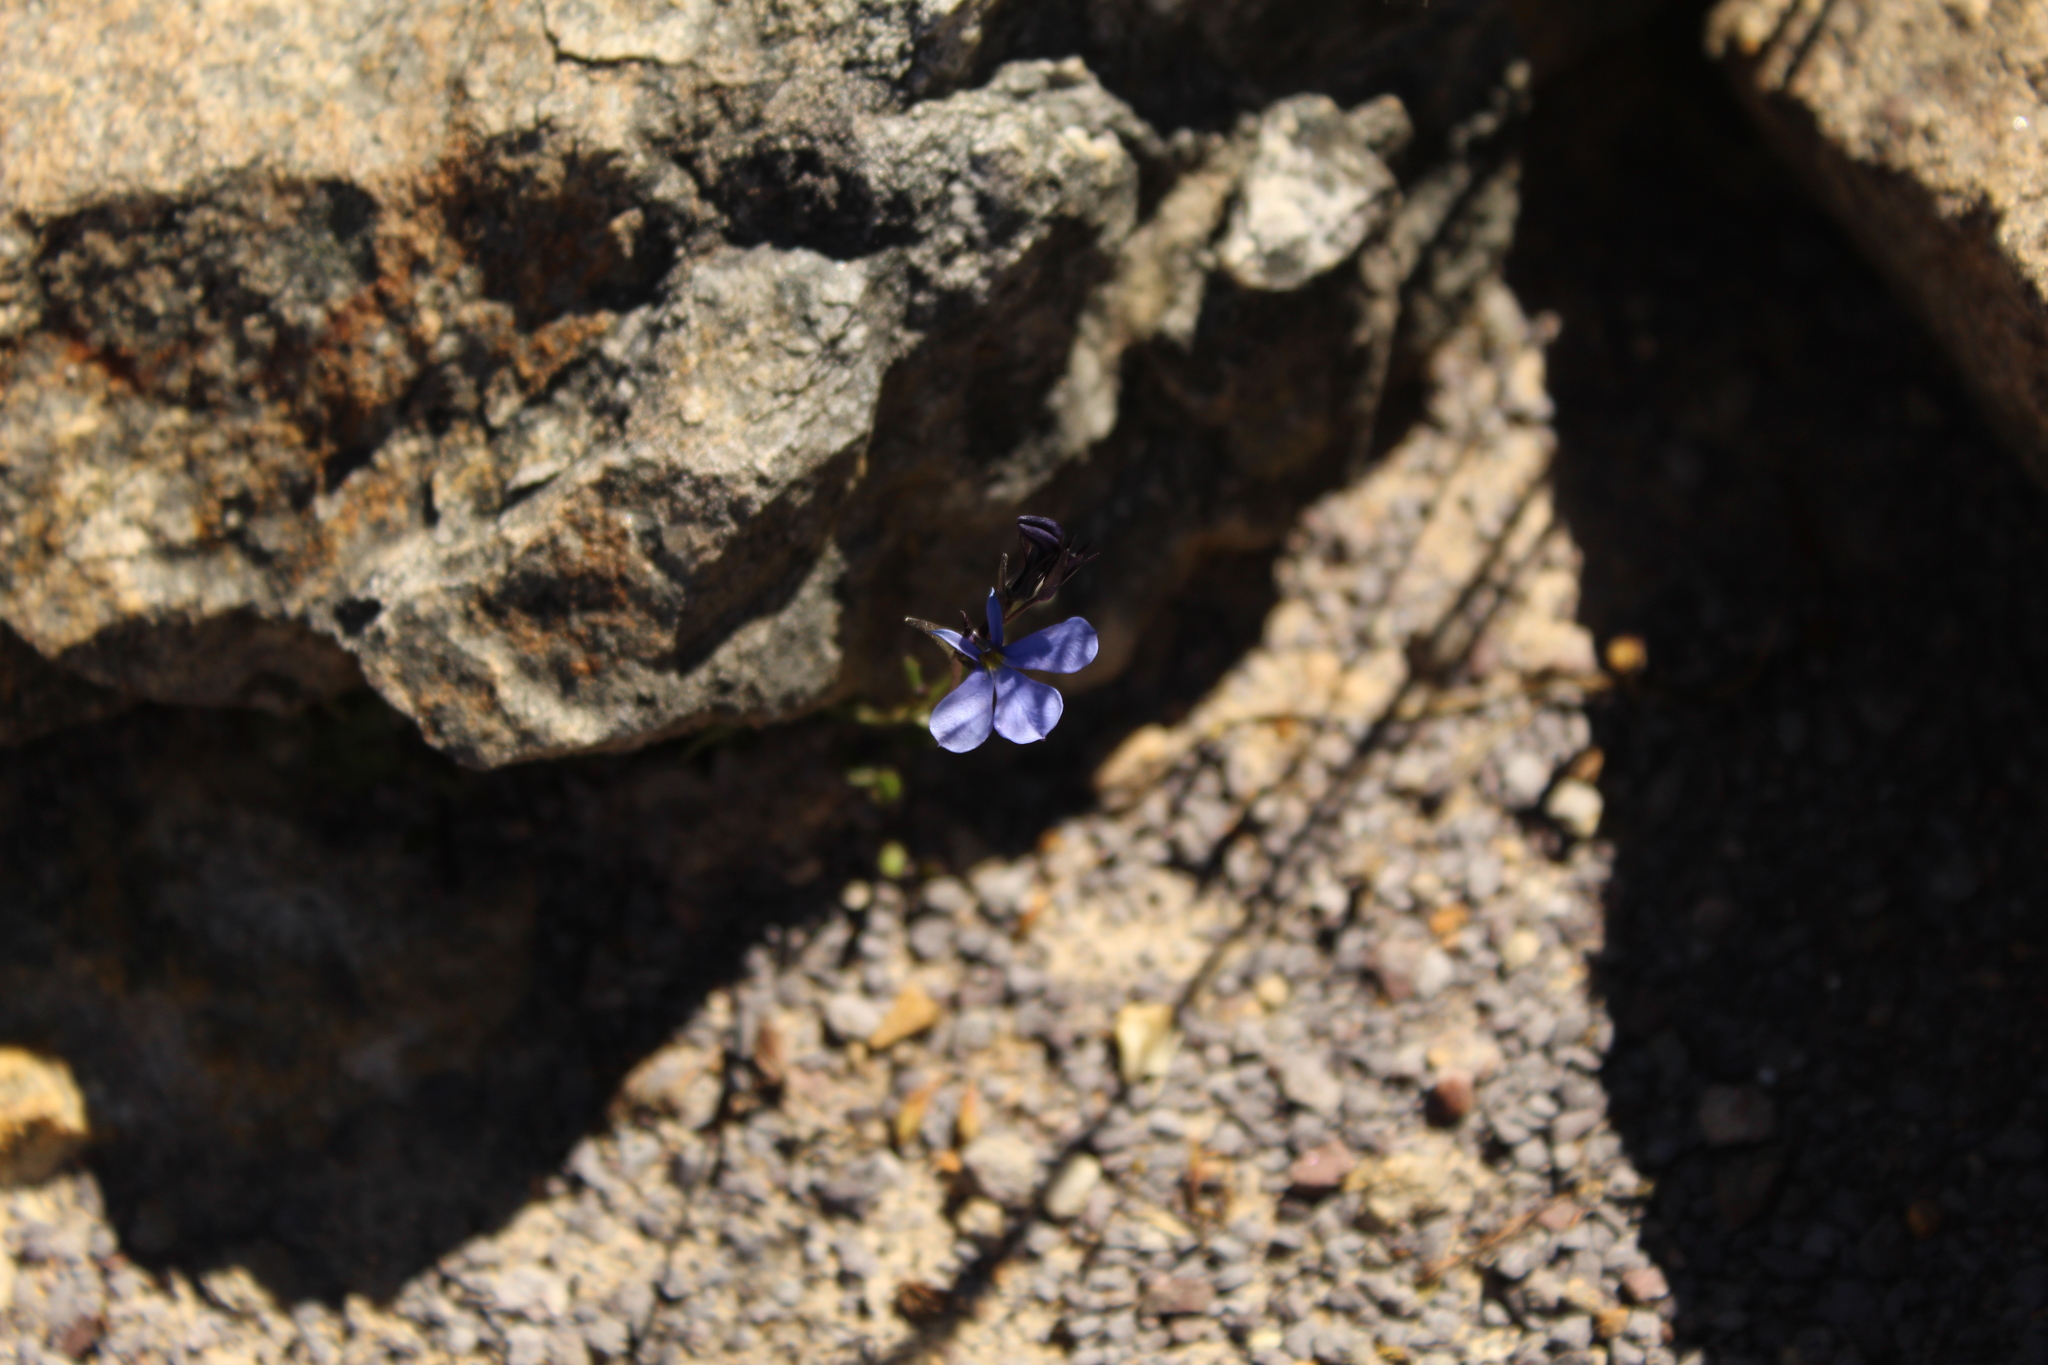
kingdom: Plantae
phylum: Tracheophyta
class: Magnoliopsida
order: Asterales
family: Campanulaceae
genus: Lobelia
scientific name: Lobelia tenera
